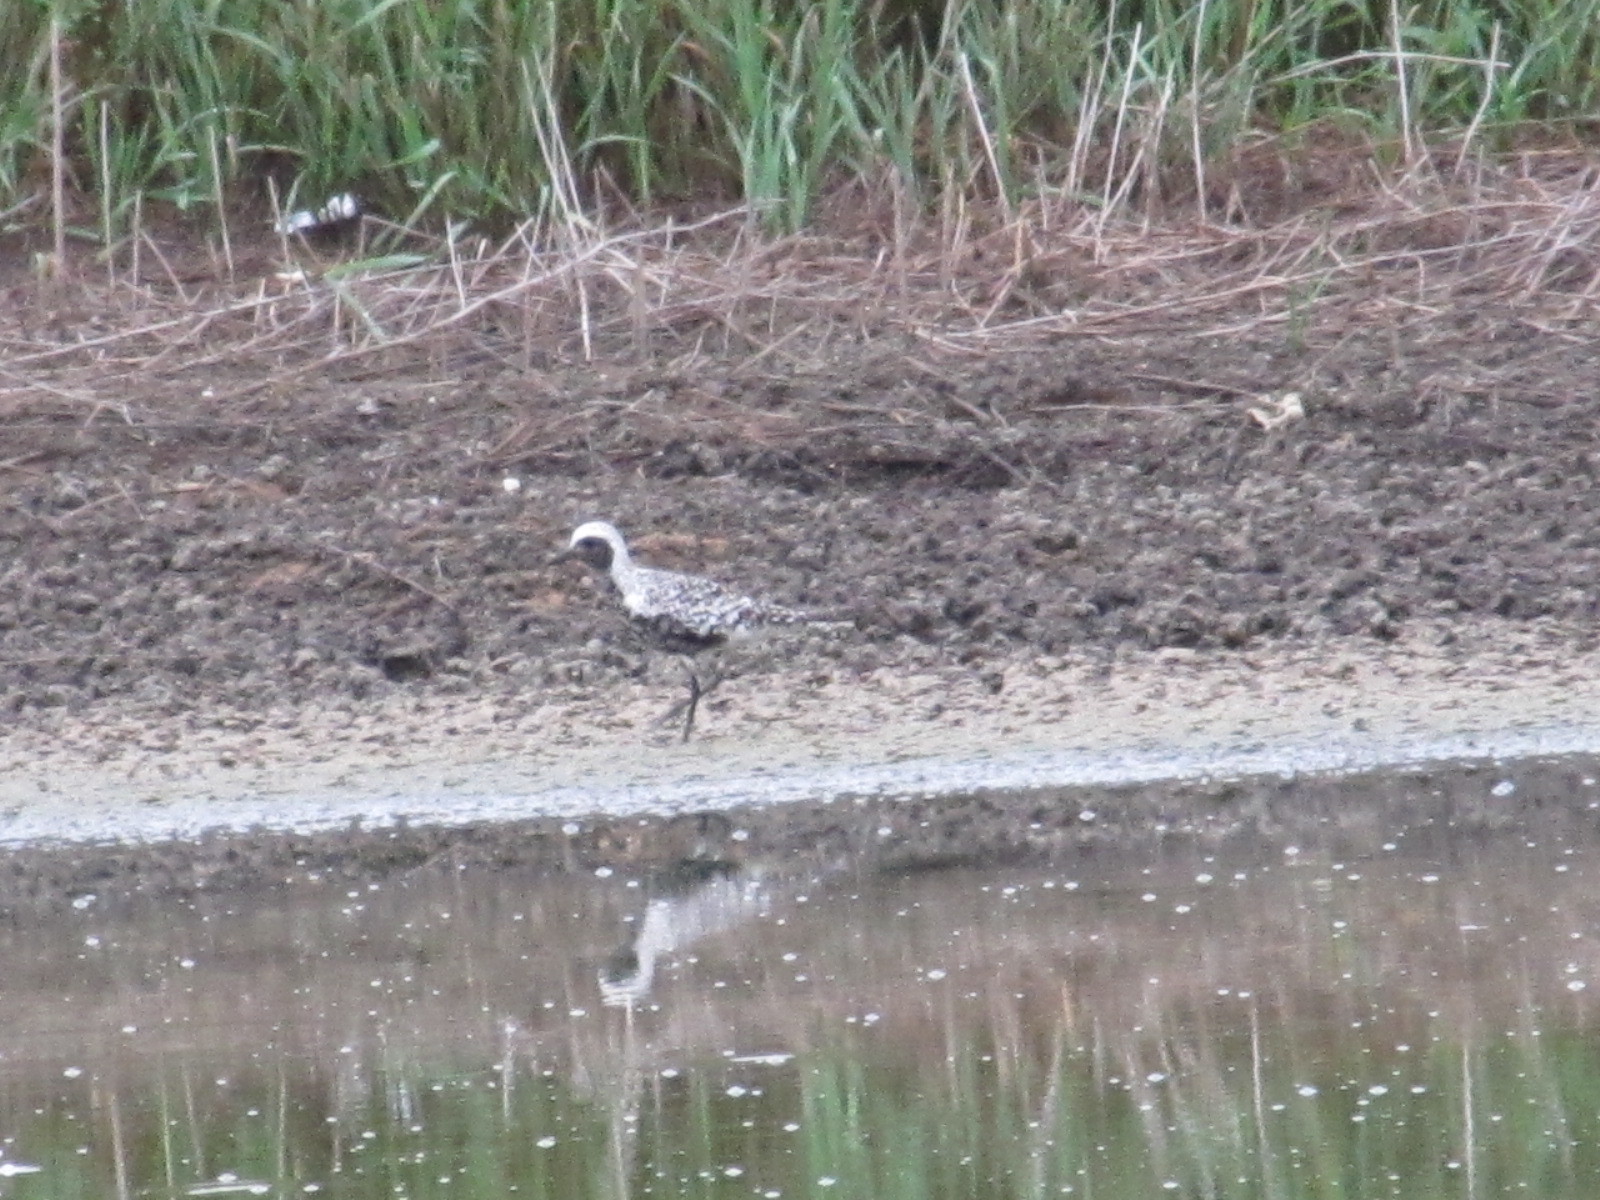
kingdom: Animalia
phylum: Chordata
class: Aves
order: Charadriiformes
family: Charadriidae
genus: Pluvialis
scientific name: Pluvialis squatarola
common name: Grey plover
